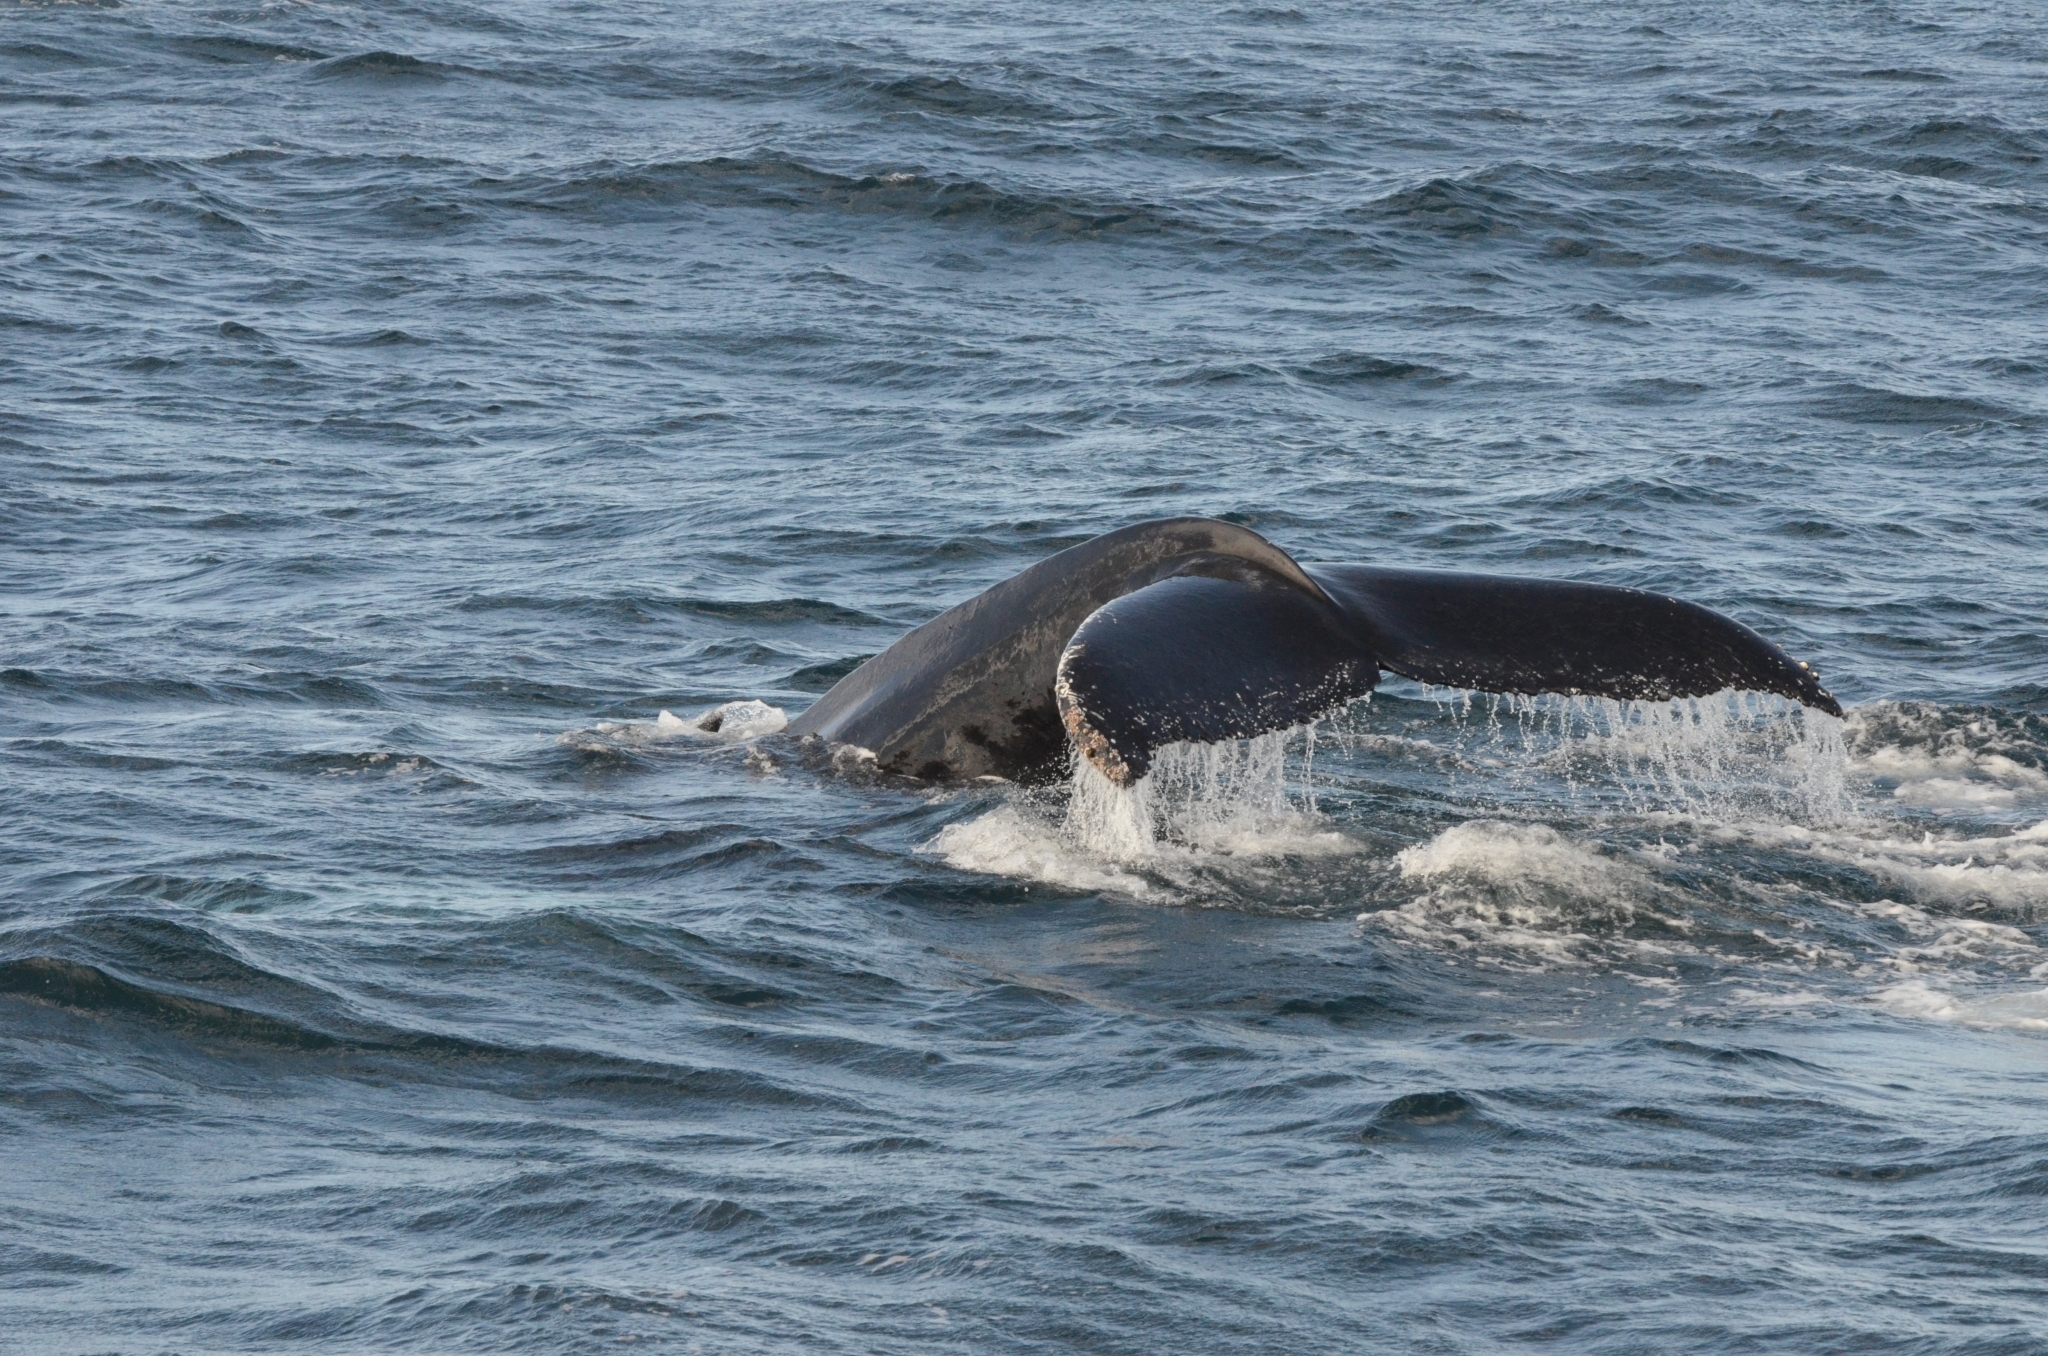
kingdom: Animalia
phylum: Chordata
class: Mammalia
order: Cetacea
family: Balaenopteridae
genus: Megaptera
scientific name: Megaptera novaeangliae
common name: Humpback whale
